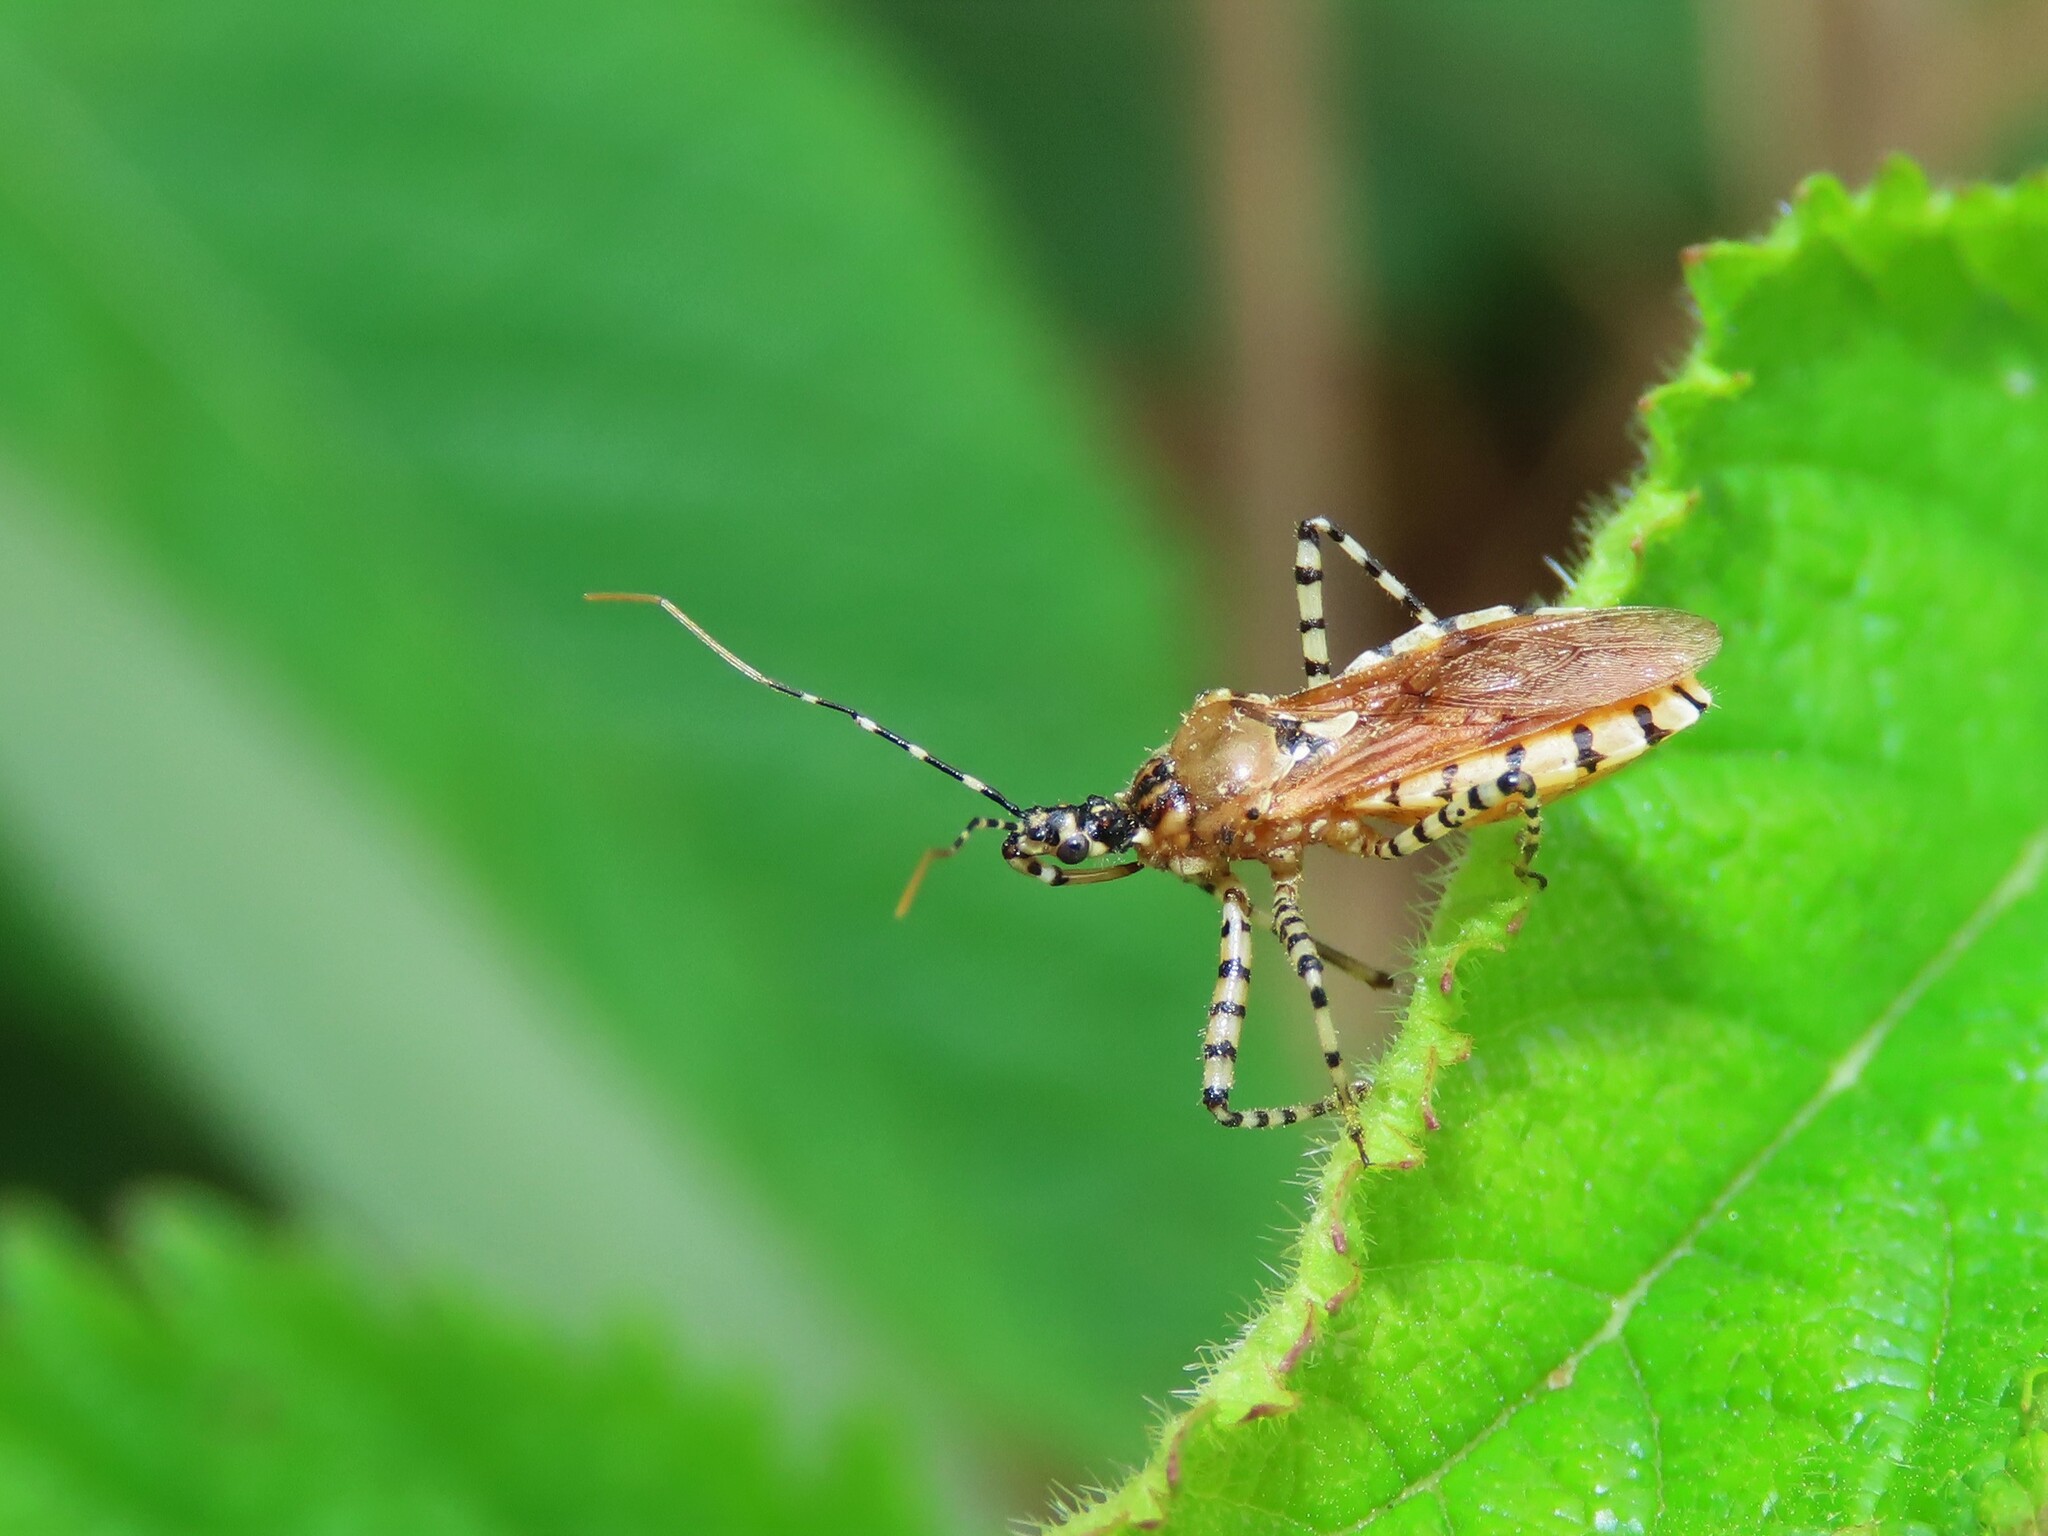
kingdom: Animalia
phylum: Arthropoda
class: Insecta
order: Hemiptera
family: Reduviidae
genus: Pselliopus
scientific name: Pselliopus cinctus
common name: Ringed assassin bug
